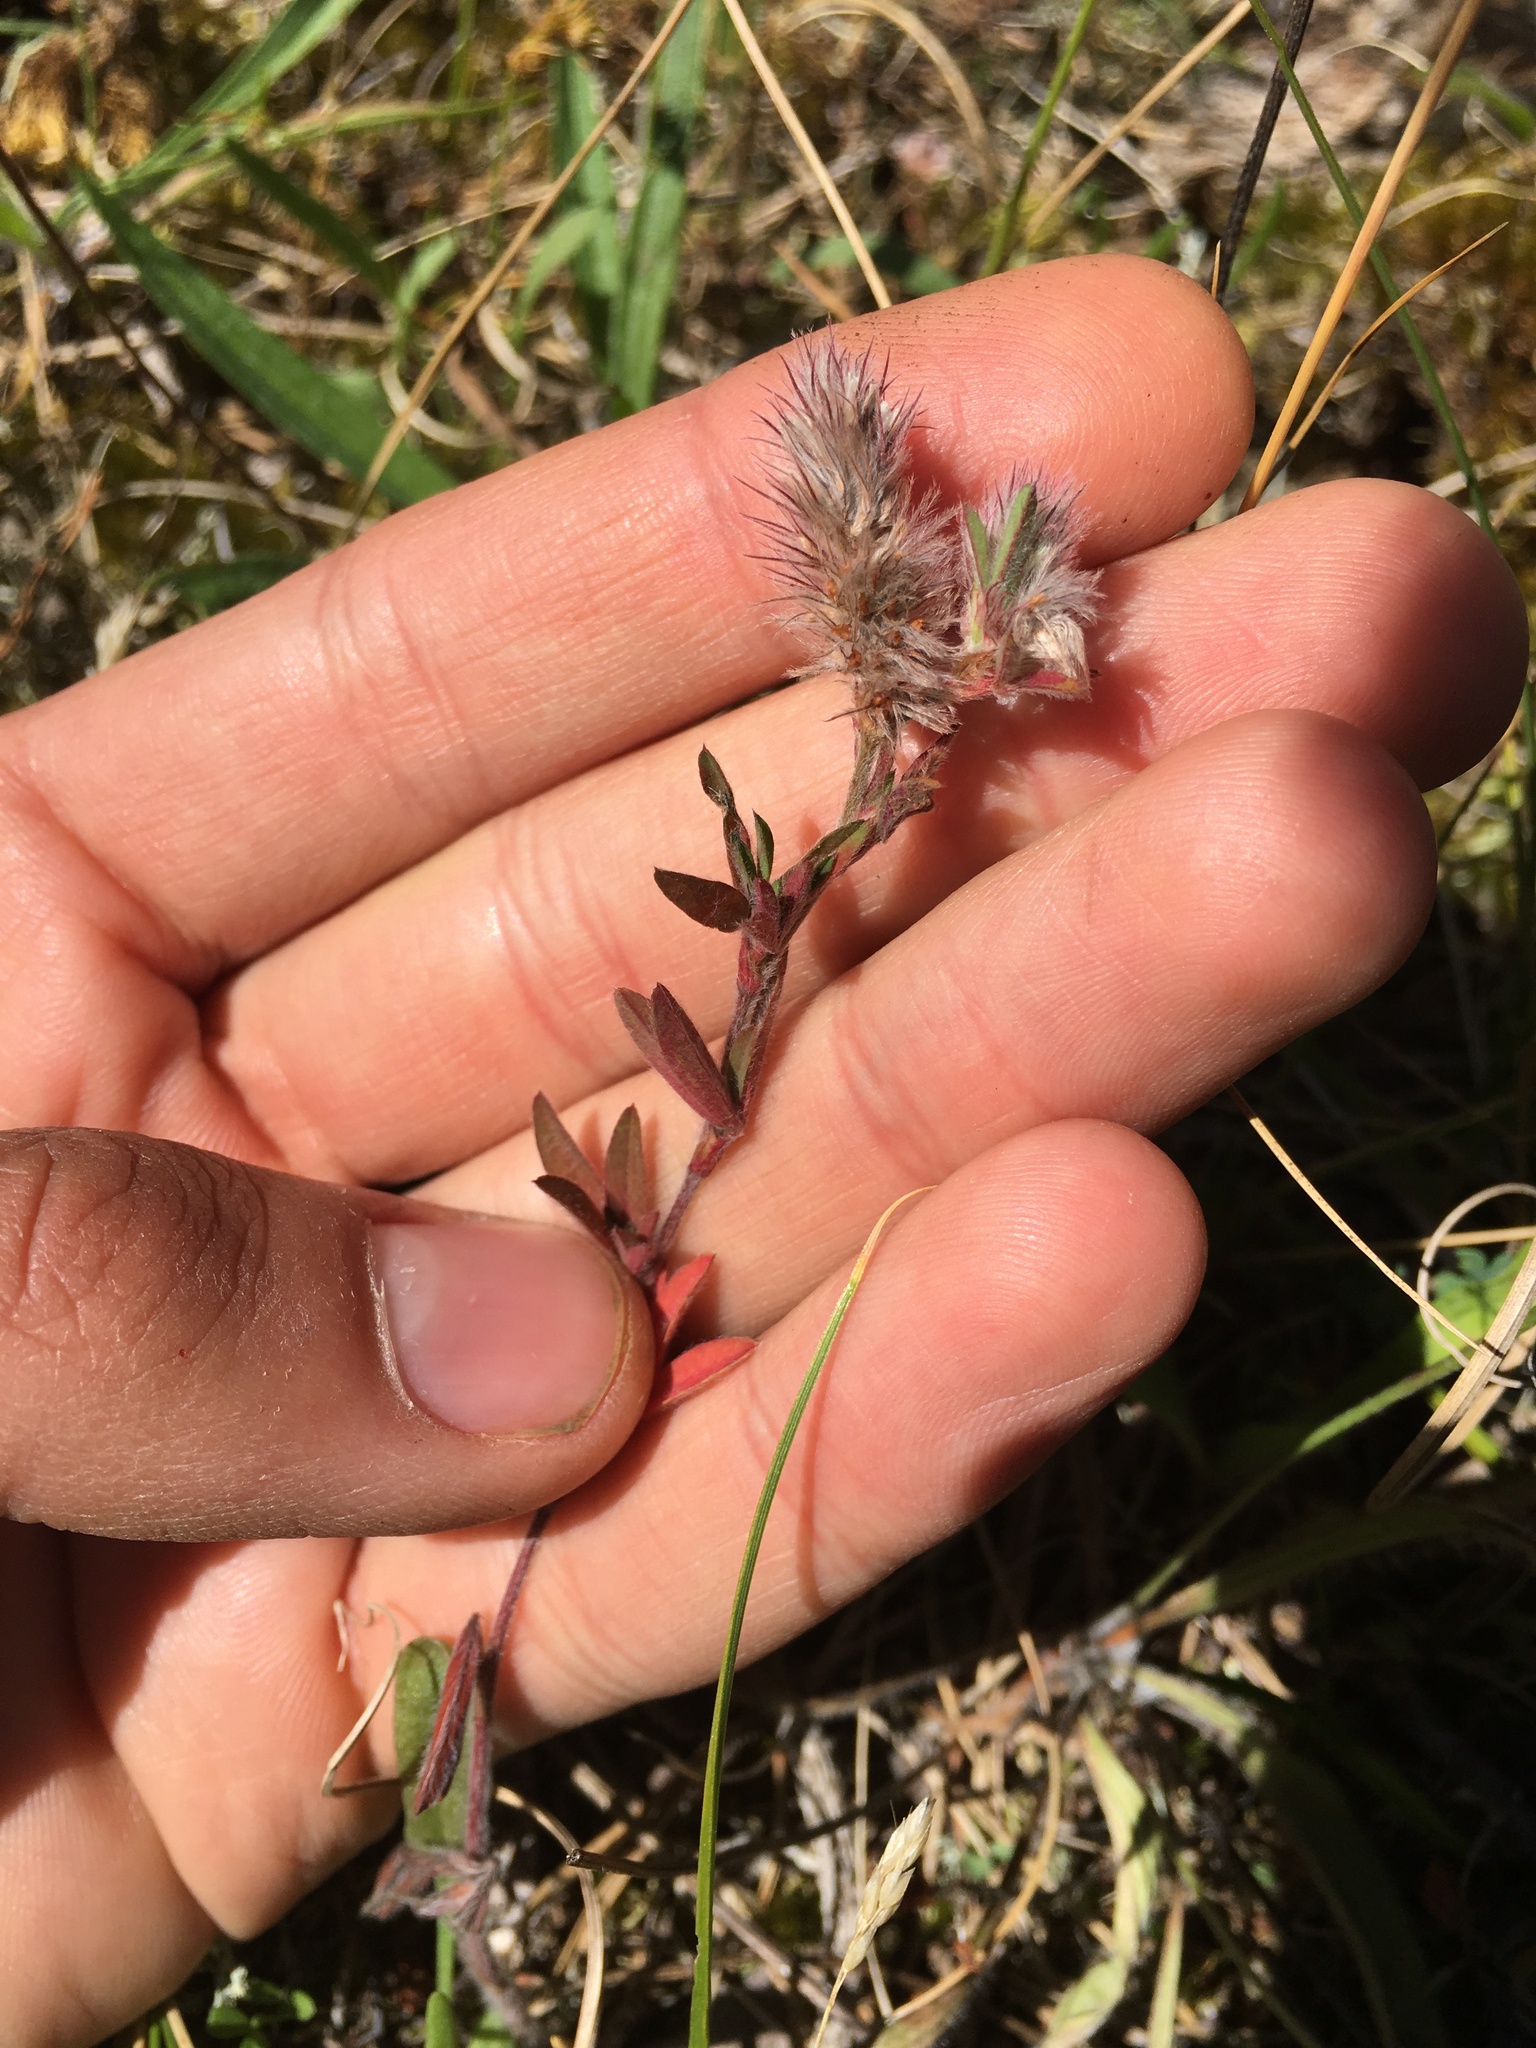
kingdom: Plantae
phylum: Tracheophyta
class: Magnoliopsida
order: Fabales
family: Fabaceae
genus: Trifolium
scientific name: Trifolium arvense
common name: Hare's-foot clover
